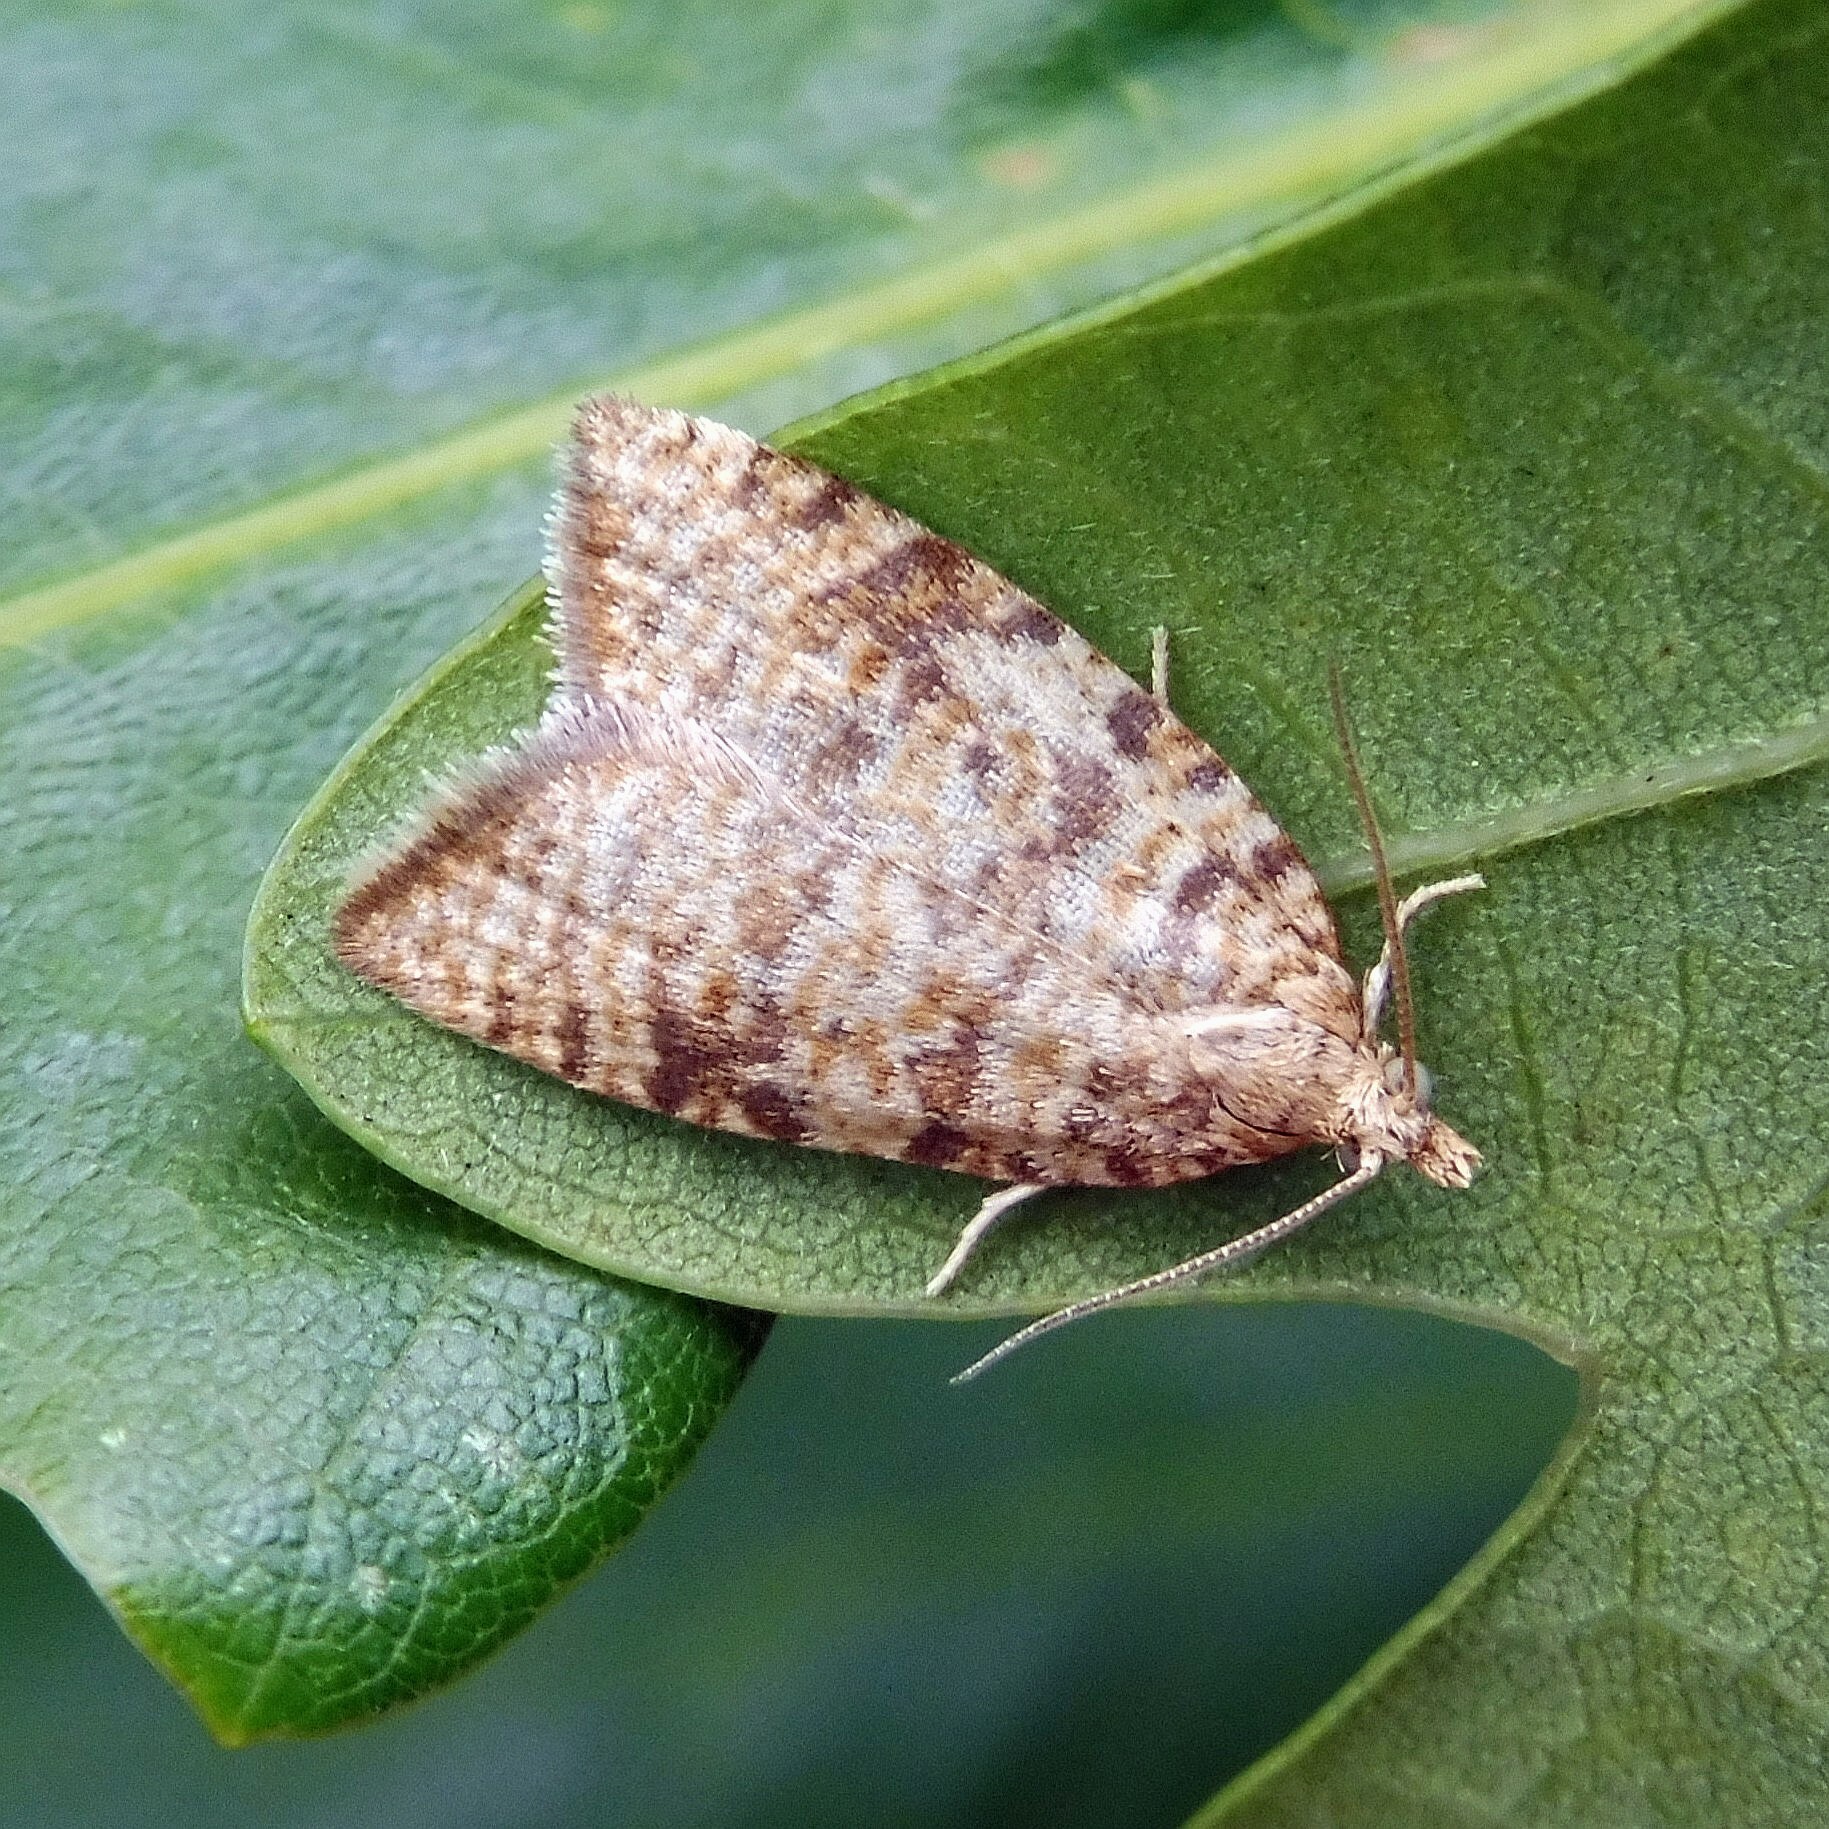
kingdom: Animalia
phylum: Arthropoda
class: Insecta
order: Lepidoptera
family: Tortricidae
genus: Aleimma
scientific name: Aleimma loeflingiana
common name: Yellow oak button
